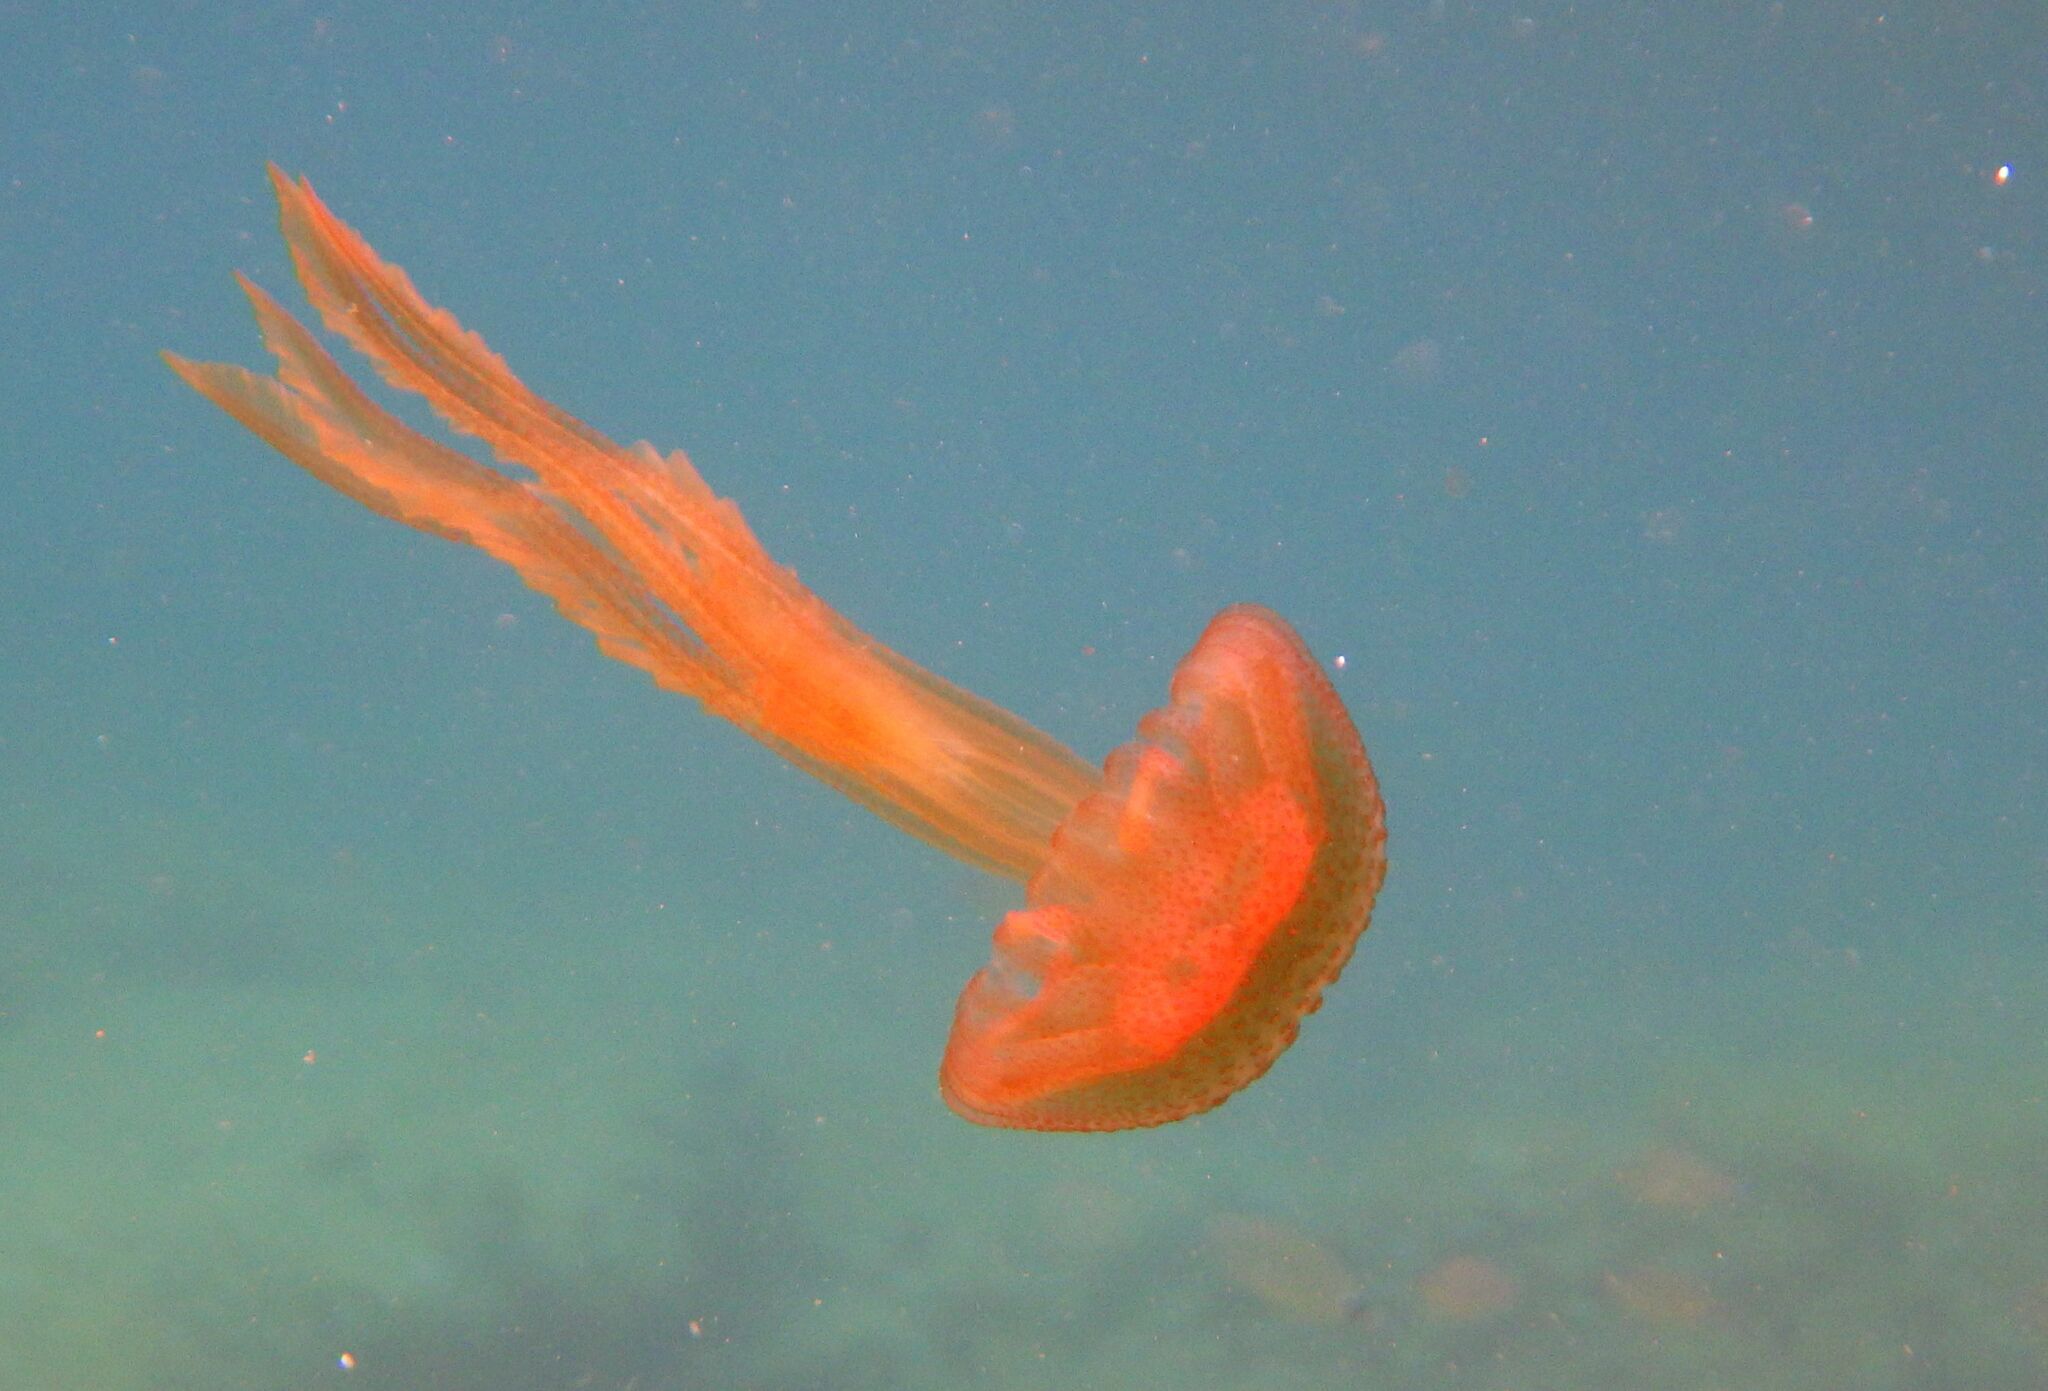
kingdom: Animalia
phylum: Cnidaria
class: Scyphozoa
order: Semaeostomeae
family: Pelagiidae
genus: Pelagia
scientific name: Pelagia noctiluca
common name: Mauve stinger
